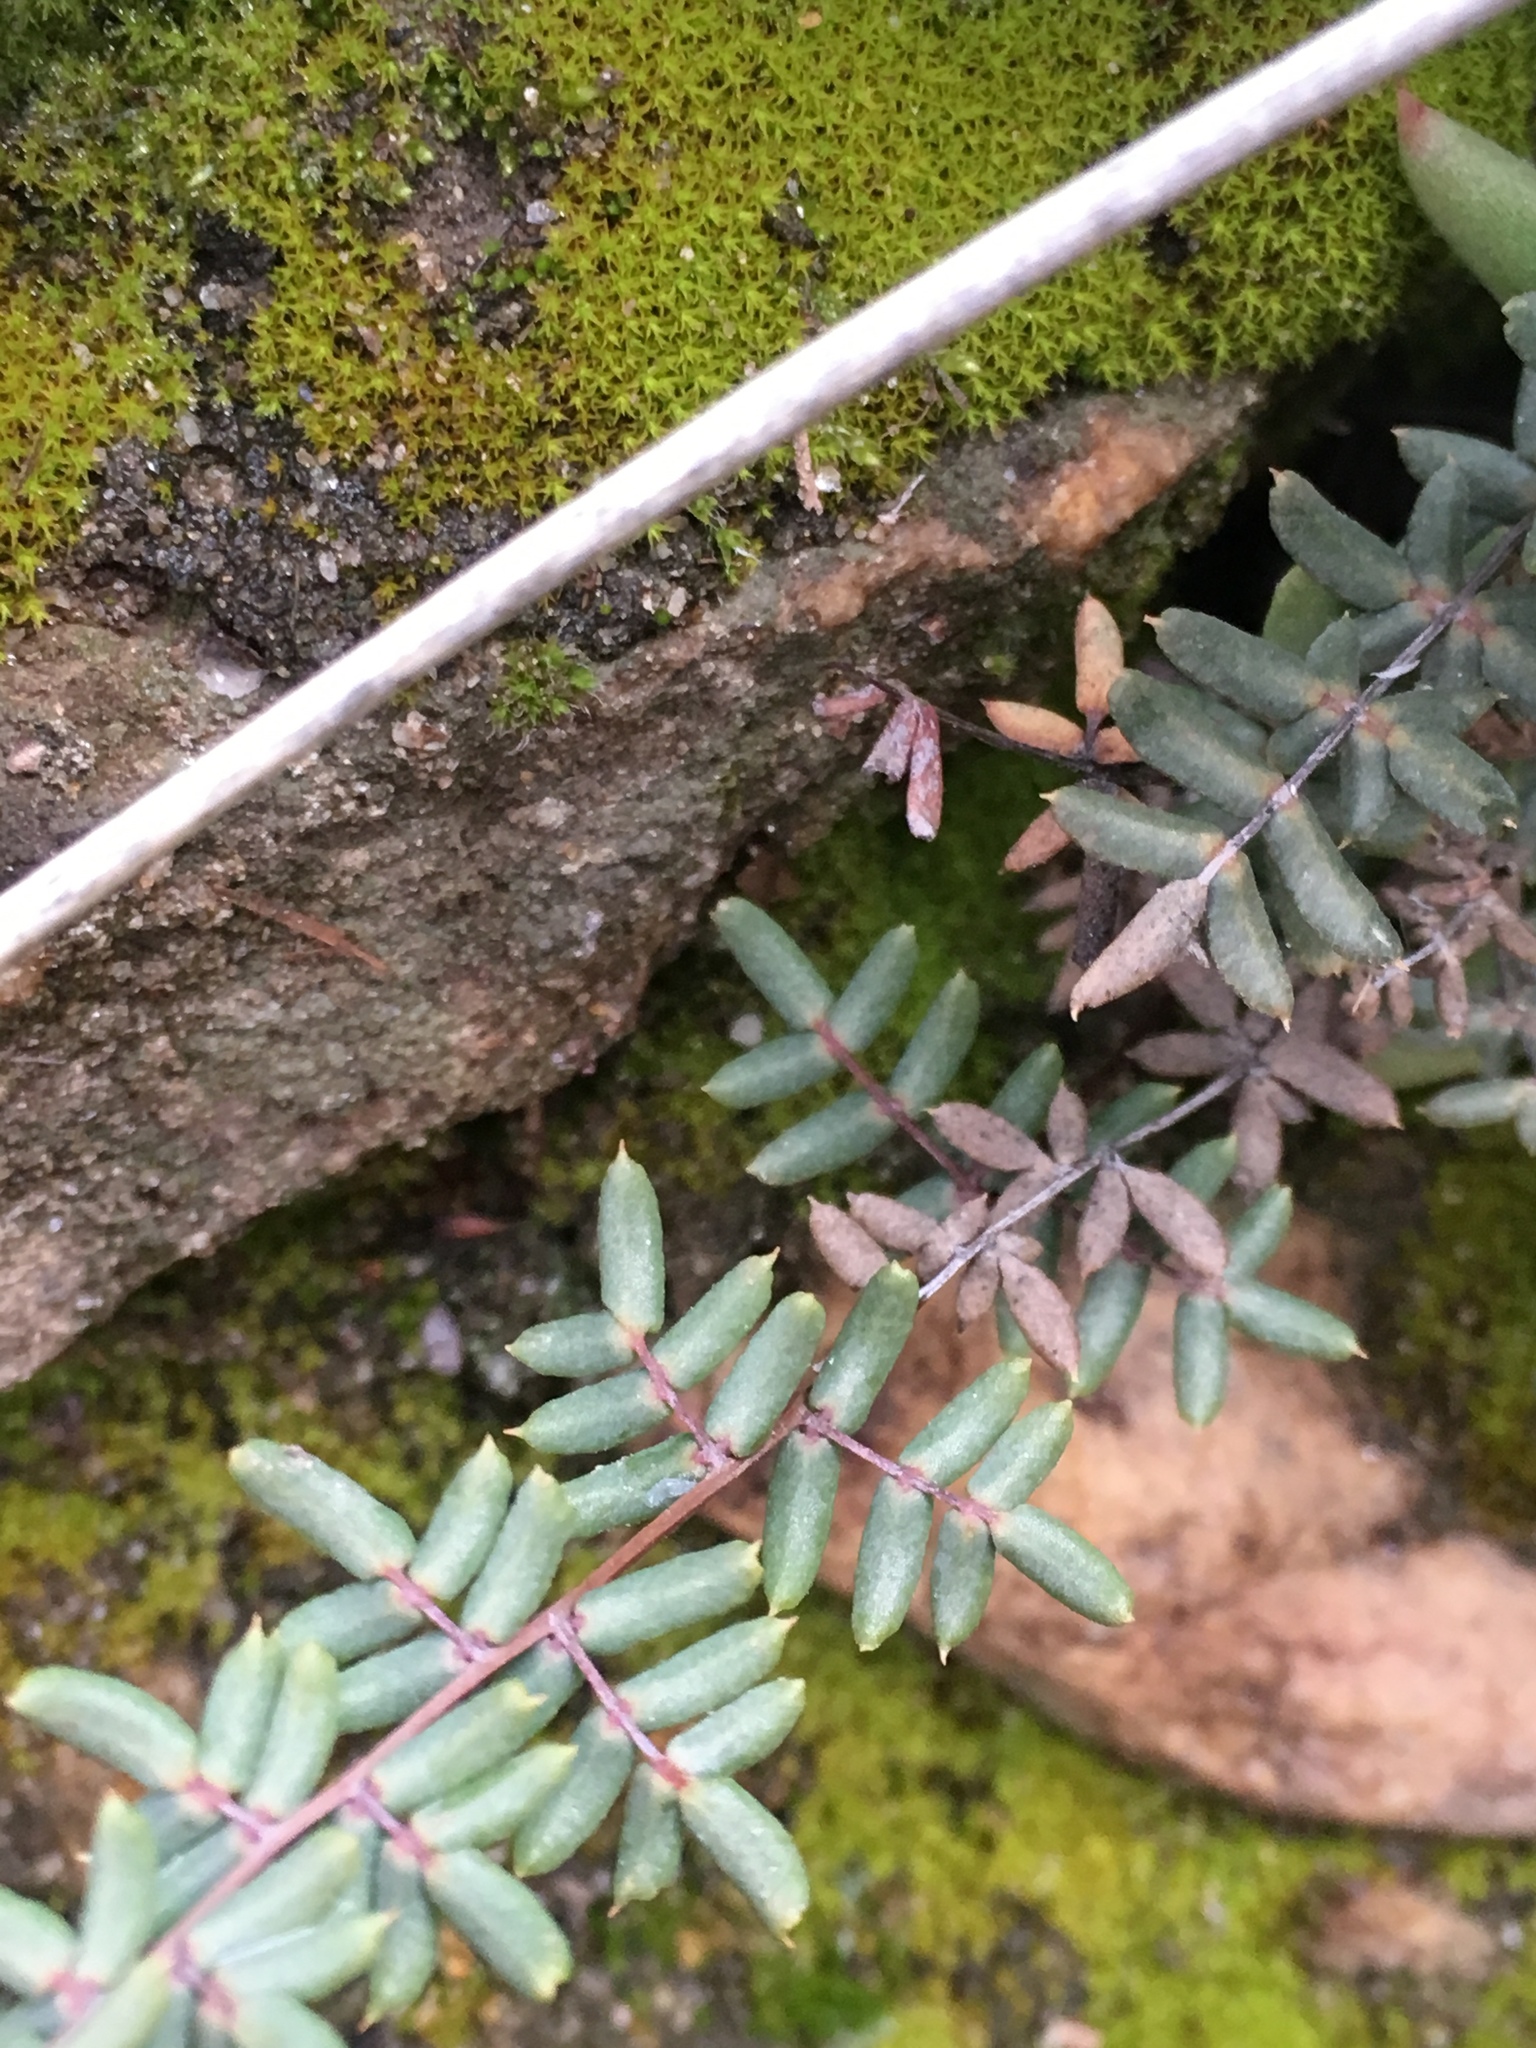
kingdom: Plantae
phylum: Tracheophyta
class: Polypodiopsida
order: Polypodiales
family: Pteridaceae
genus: Pellaea
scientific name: Pellaea mucronata
